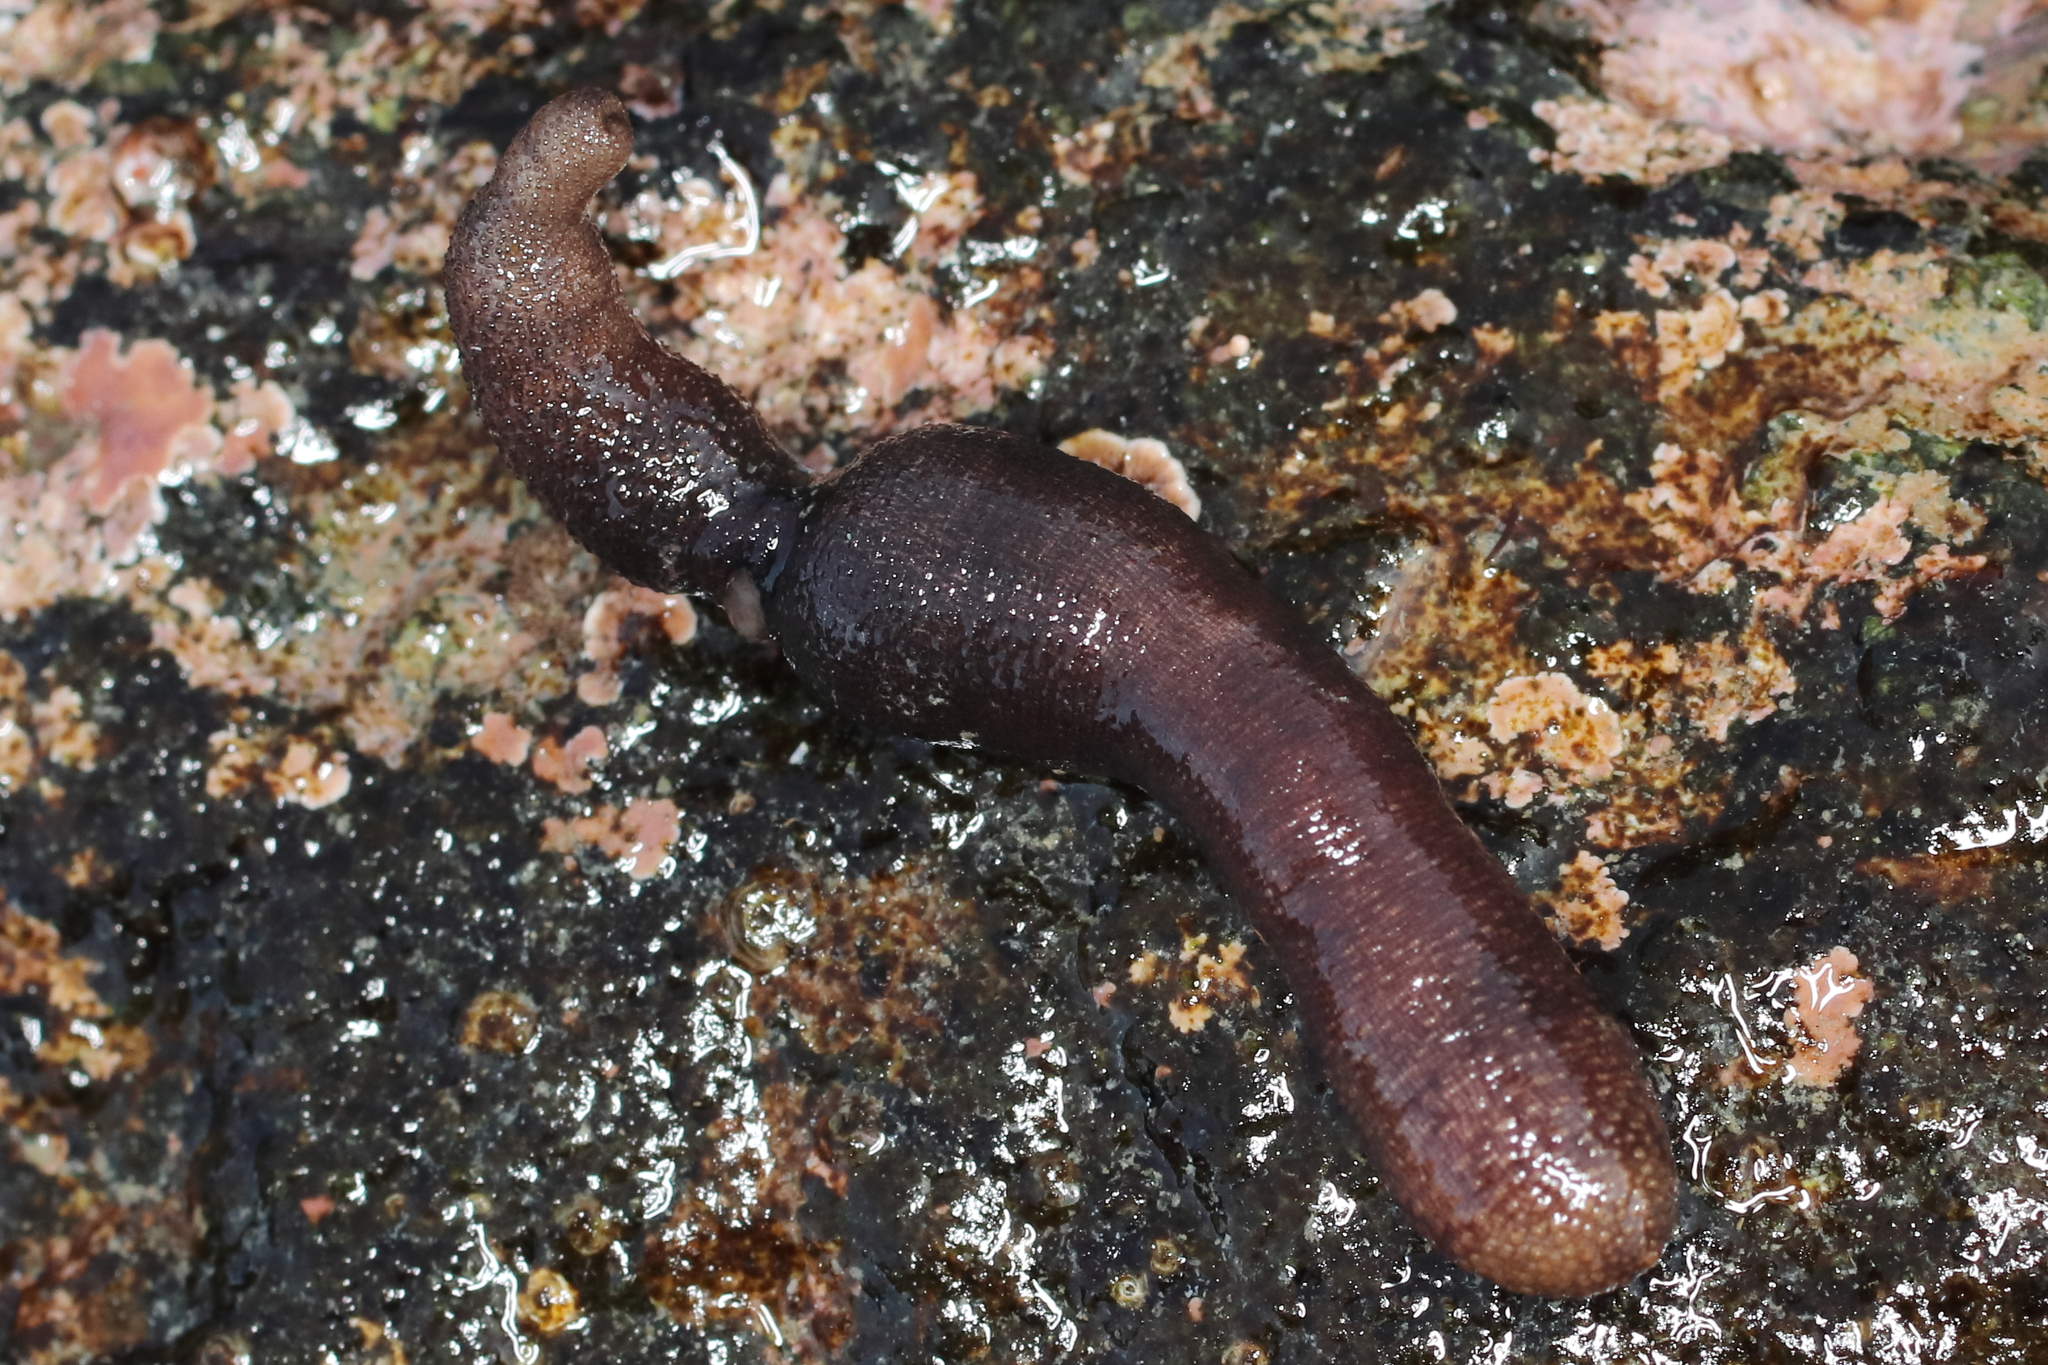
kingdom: Animalia
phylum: Sipuncula
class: Phascolosomatidea
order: Phascolosomatiformes
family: Phascolosomatidae
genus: Phascolosoma
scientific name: Phascolosoma agassizii
